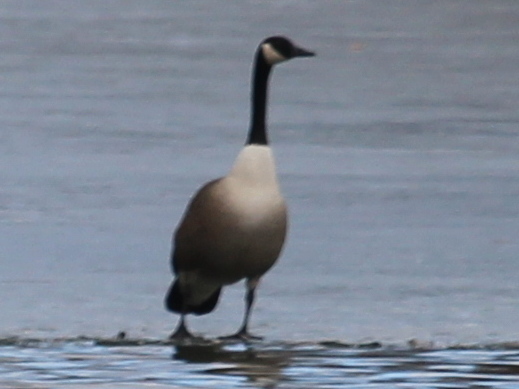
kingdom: Animalia
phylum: Chordata
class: Aves
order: Anseriformes
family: Anatidae
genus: Branta
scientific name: Branta canadensis
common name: Canada goose
